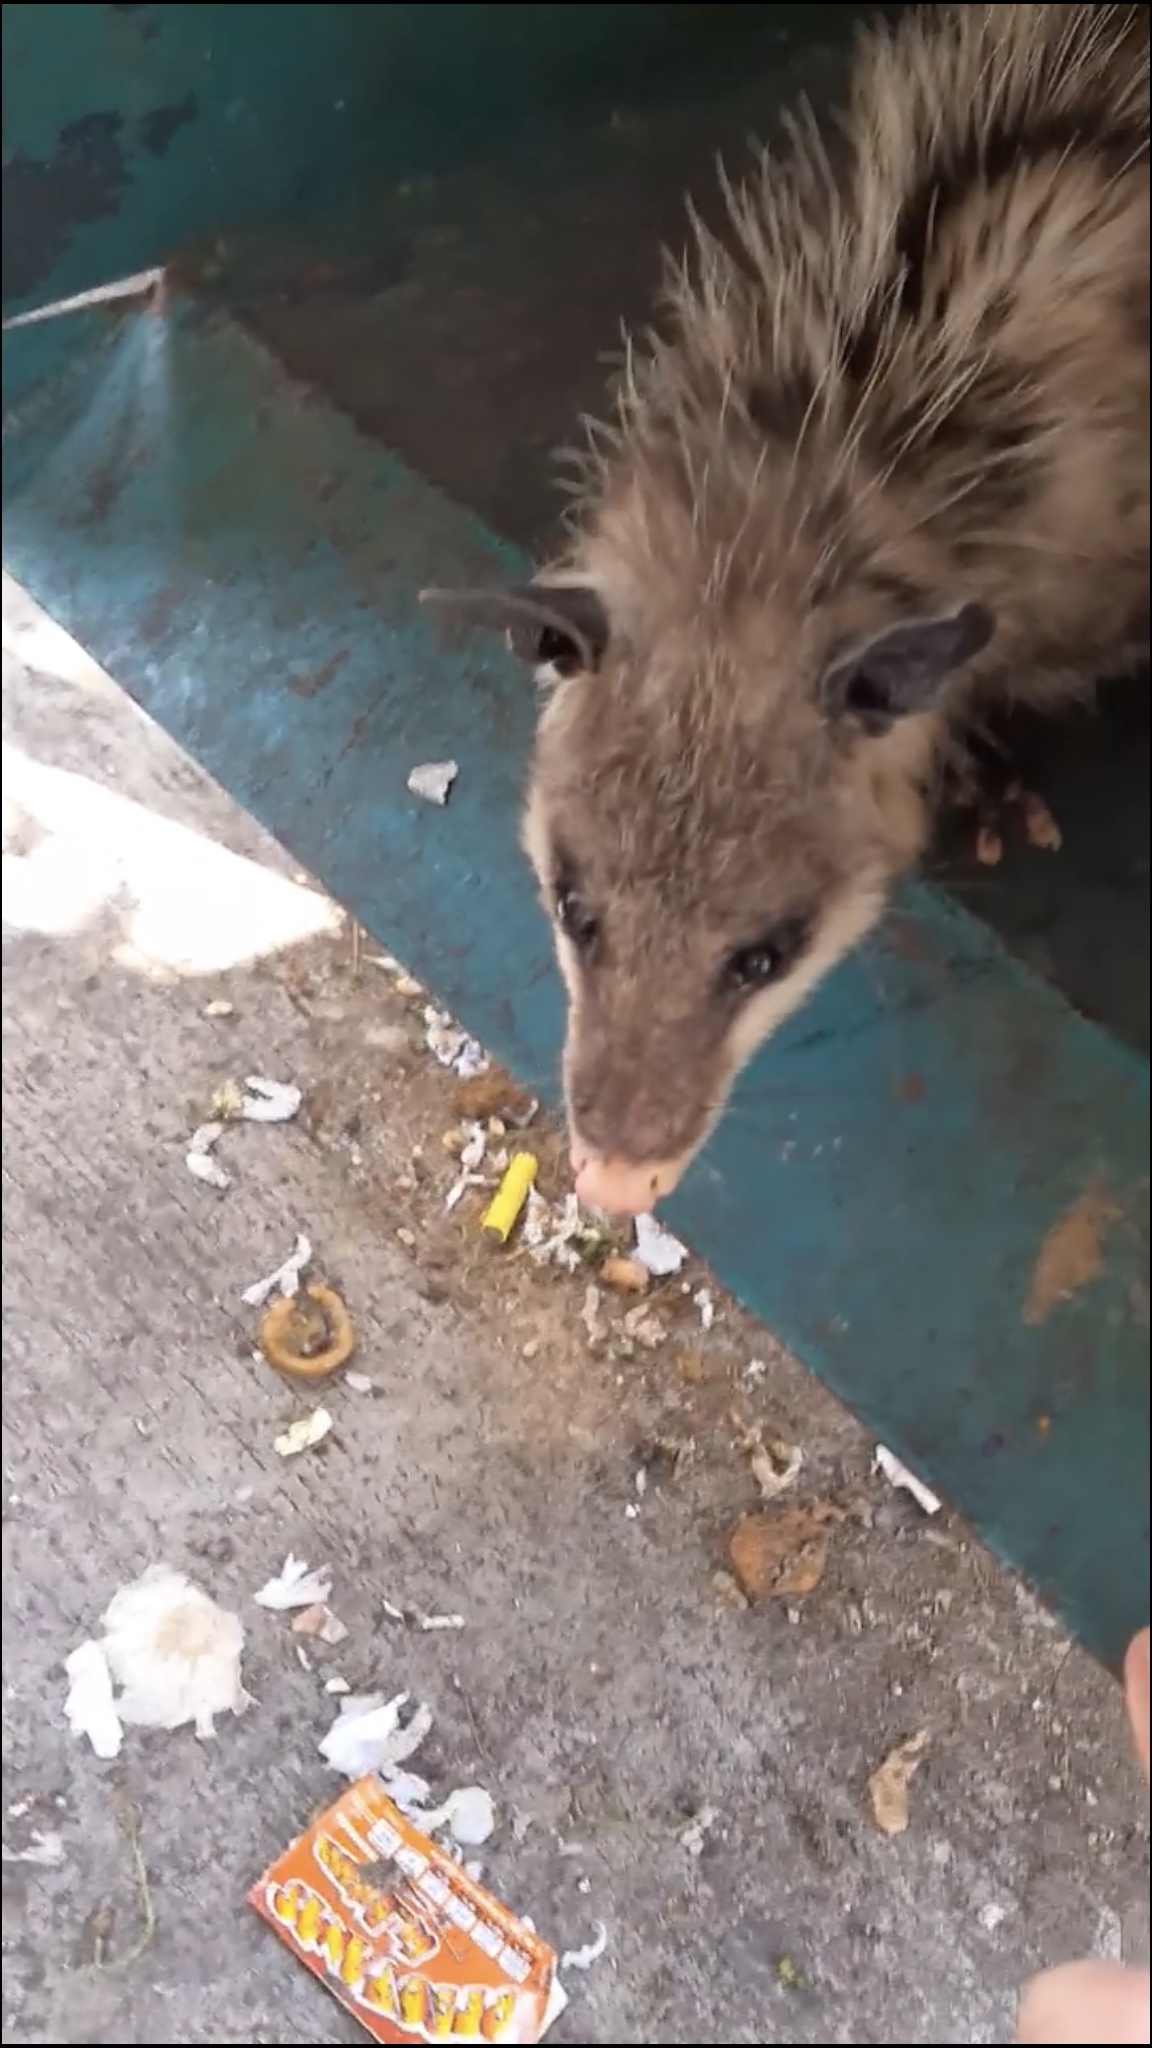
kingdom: Animalia
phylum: Chordata
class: Mammalia
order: Didelphimorphia
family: Didelphidae
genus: Didelphis
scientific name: Didelphis virginiana
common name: Virginia opossum
